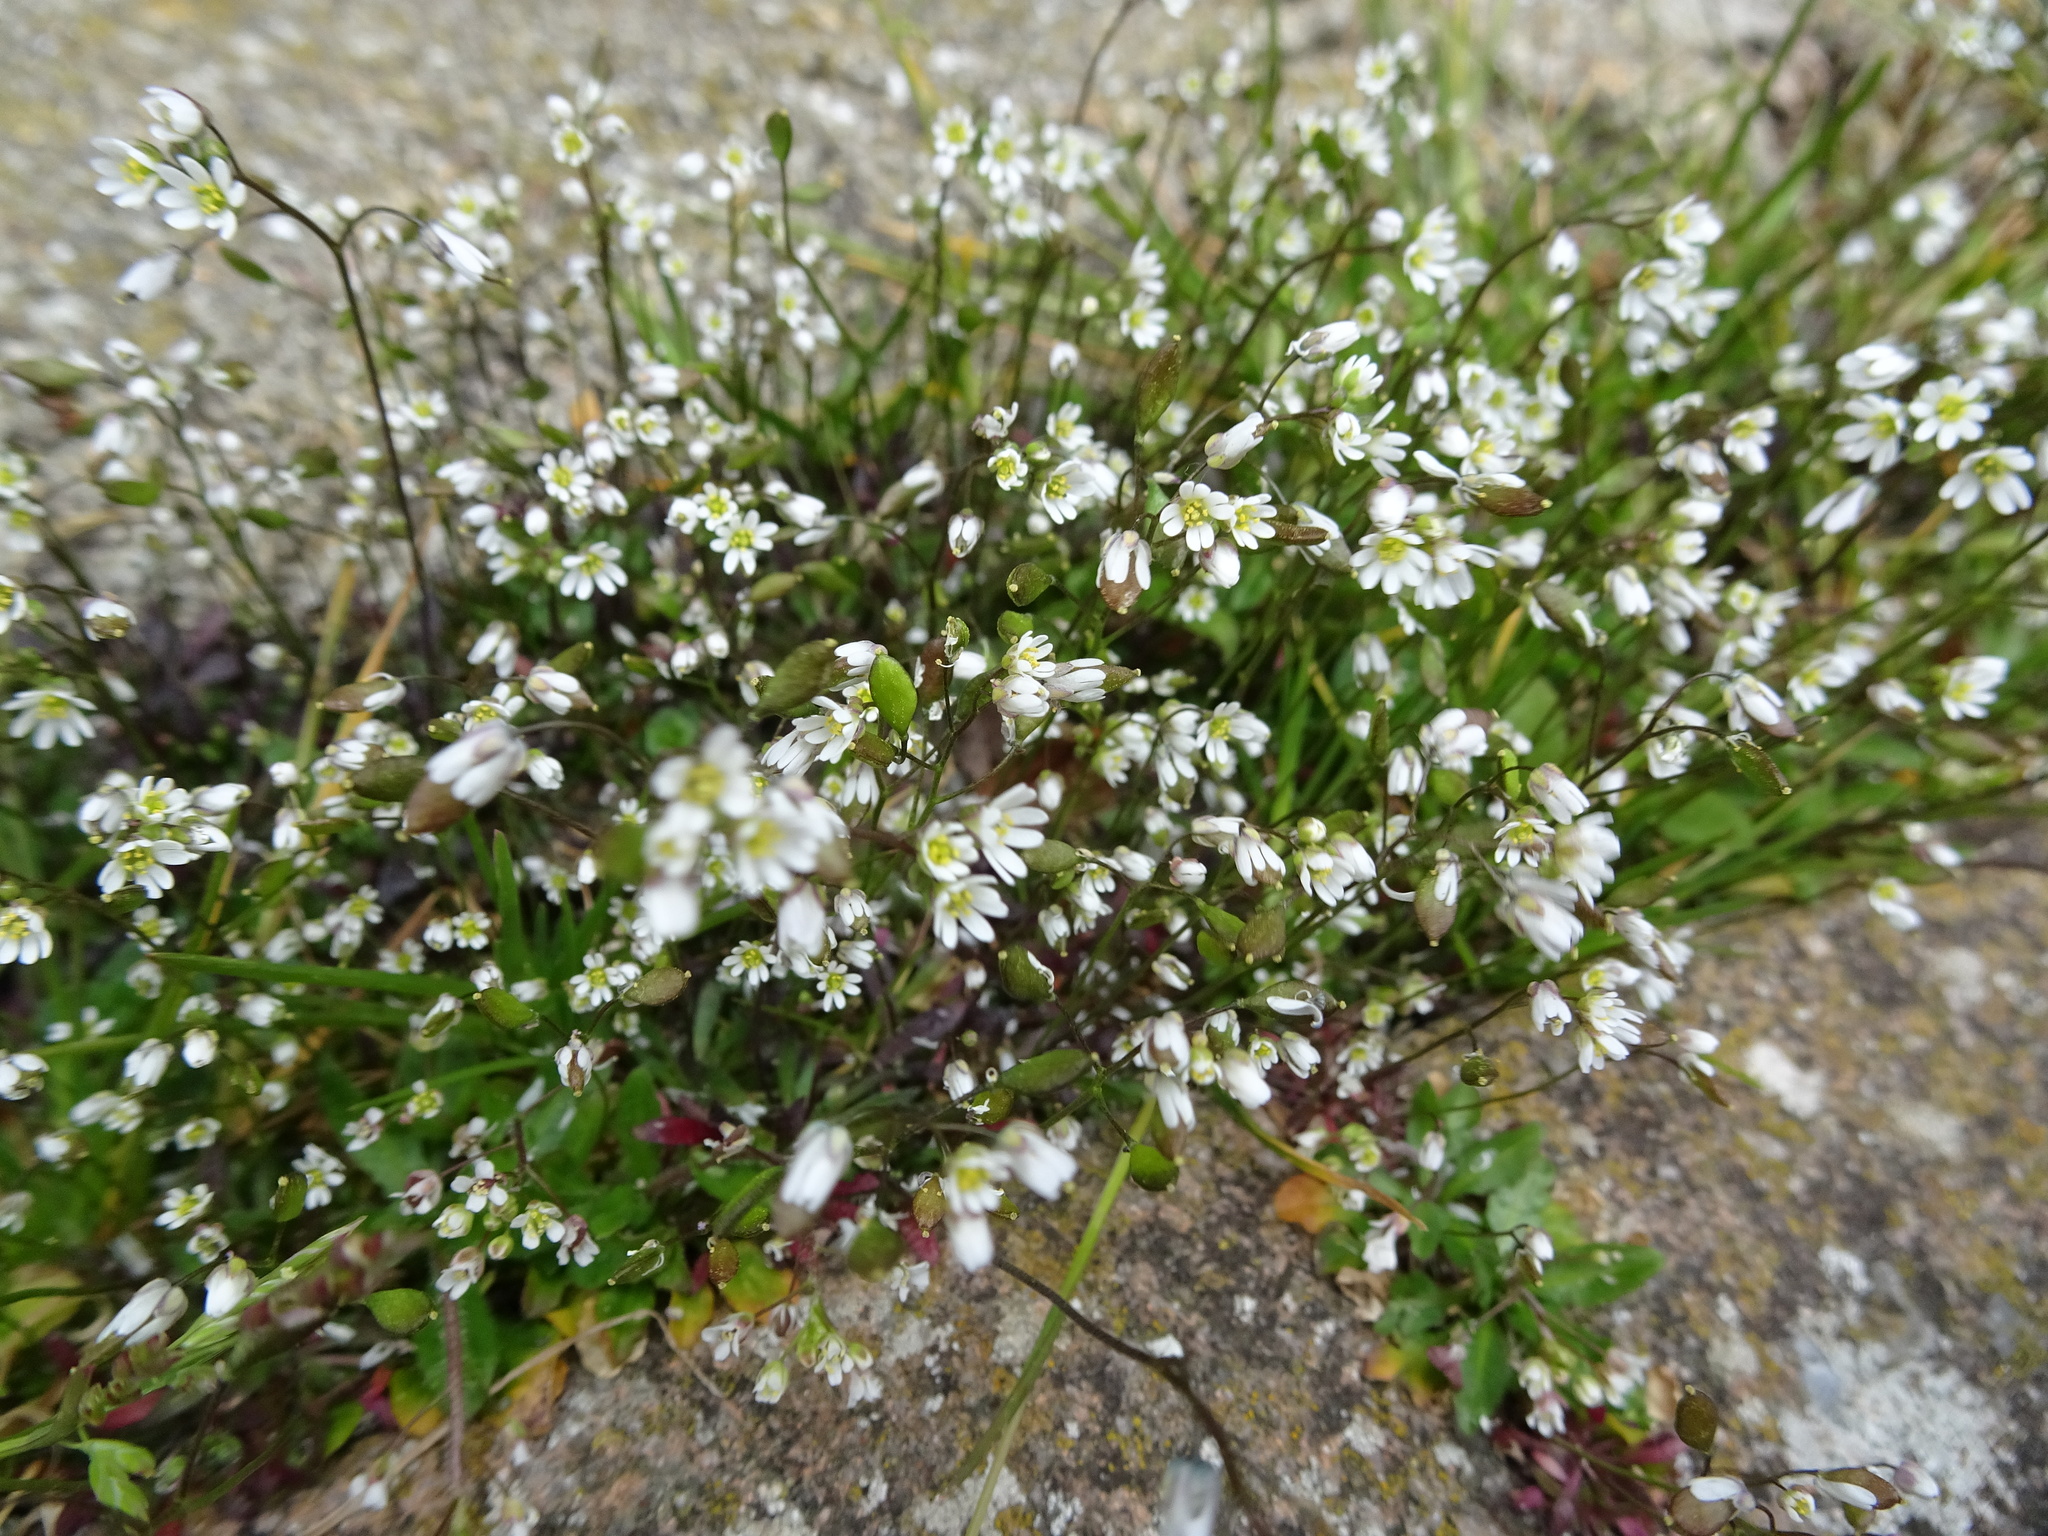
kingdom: Plantae
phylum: Tracheophyta
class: Magnoliopsida
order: Brassicales
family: Brassicaceae
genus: Draba
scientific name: Draba verna
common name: Spring draba
